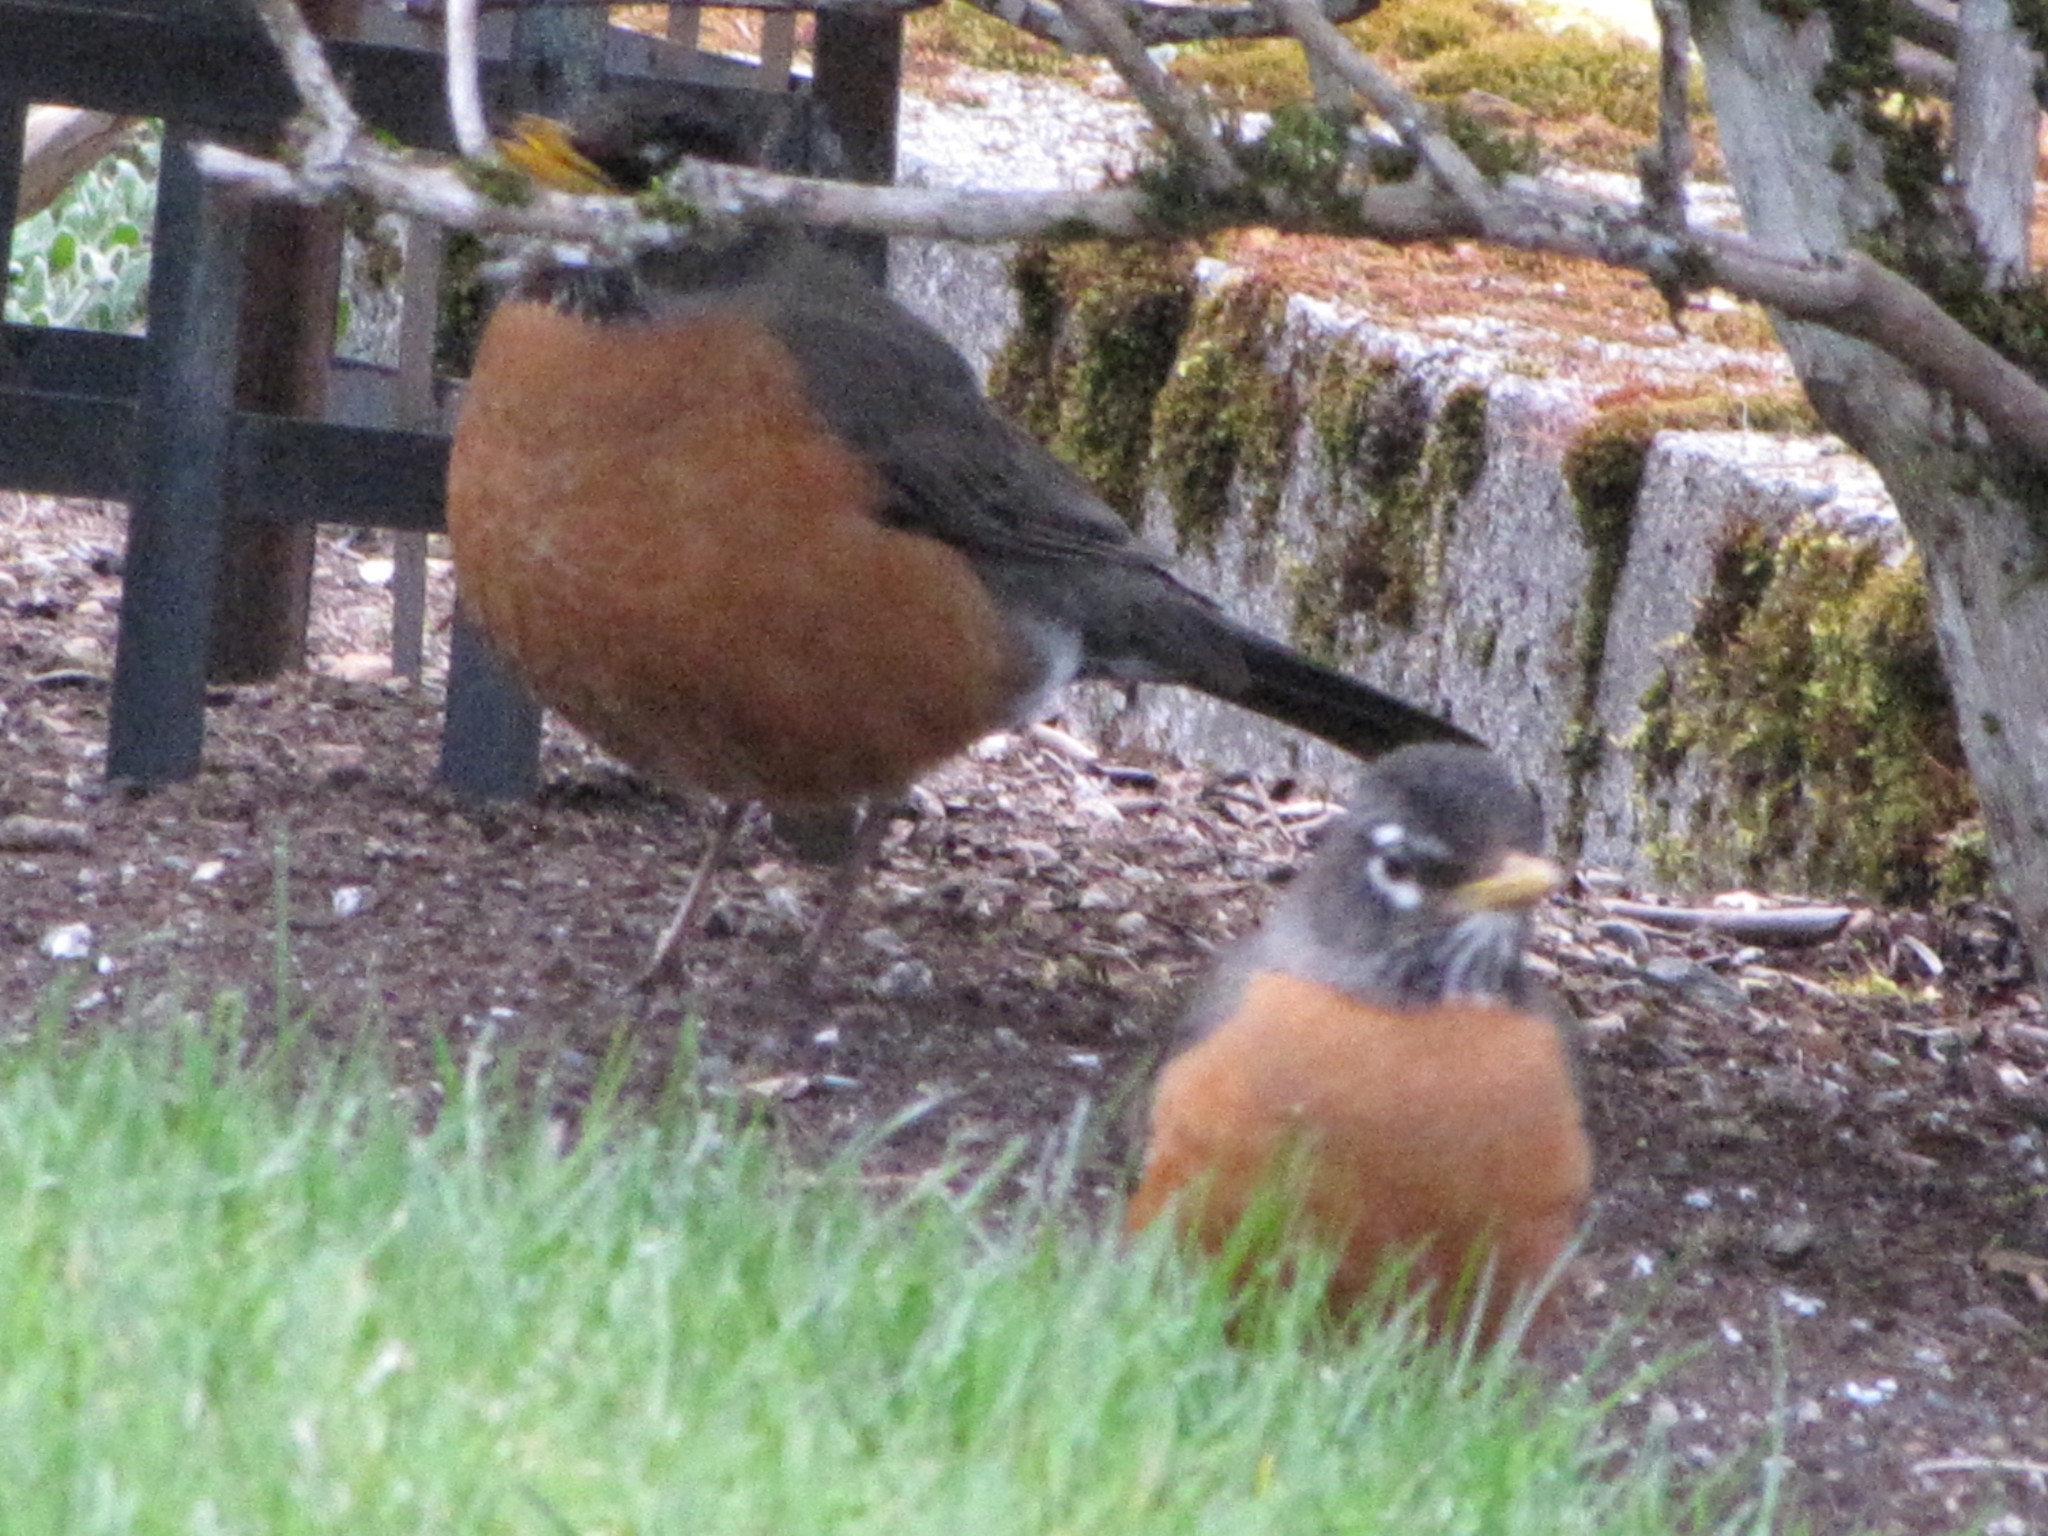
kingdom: Animalia
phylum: Chordata
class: Aves
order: Passeriformes
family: Turdidae
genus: Turdus
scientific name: Turdus migratorius
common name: American robin
